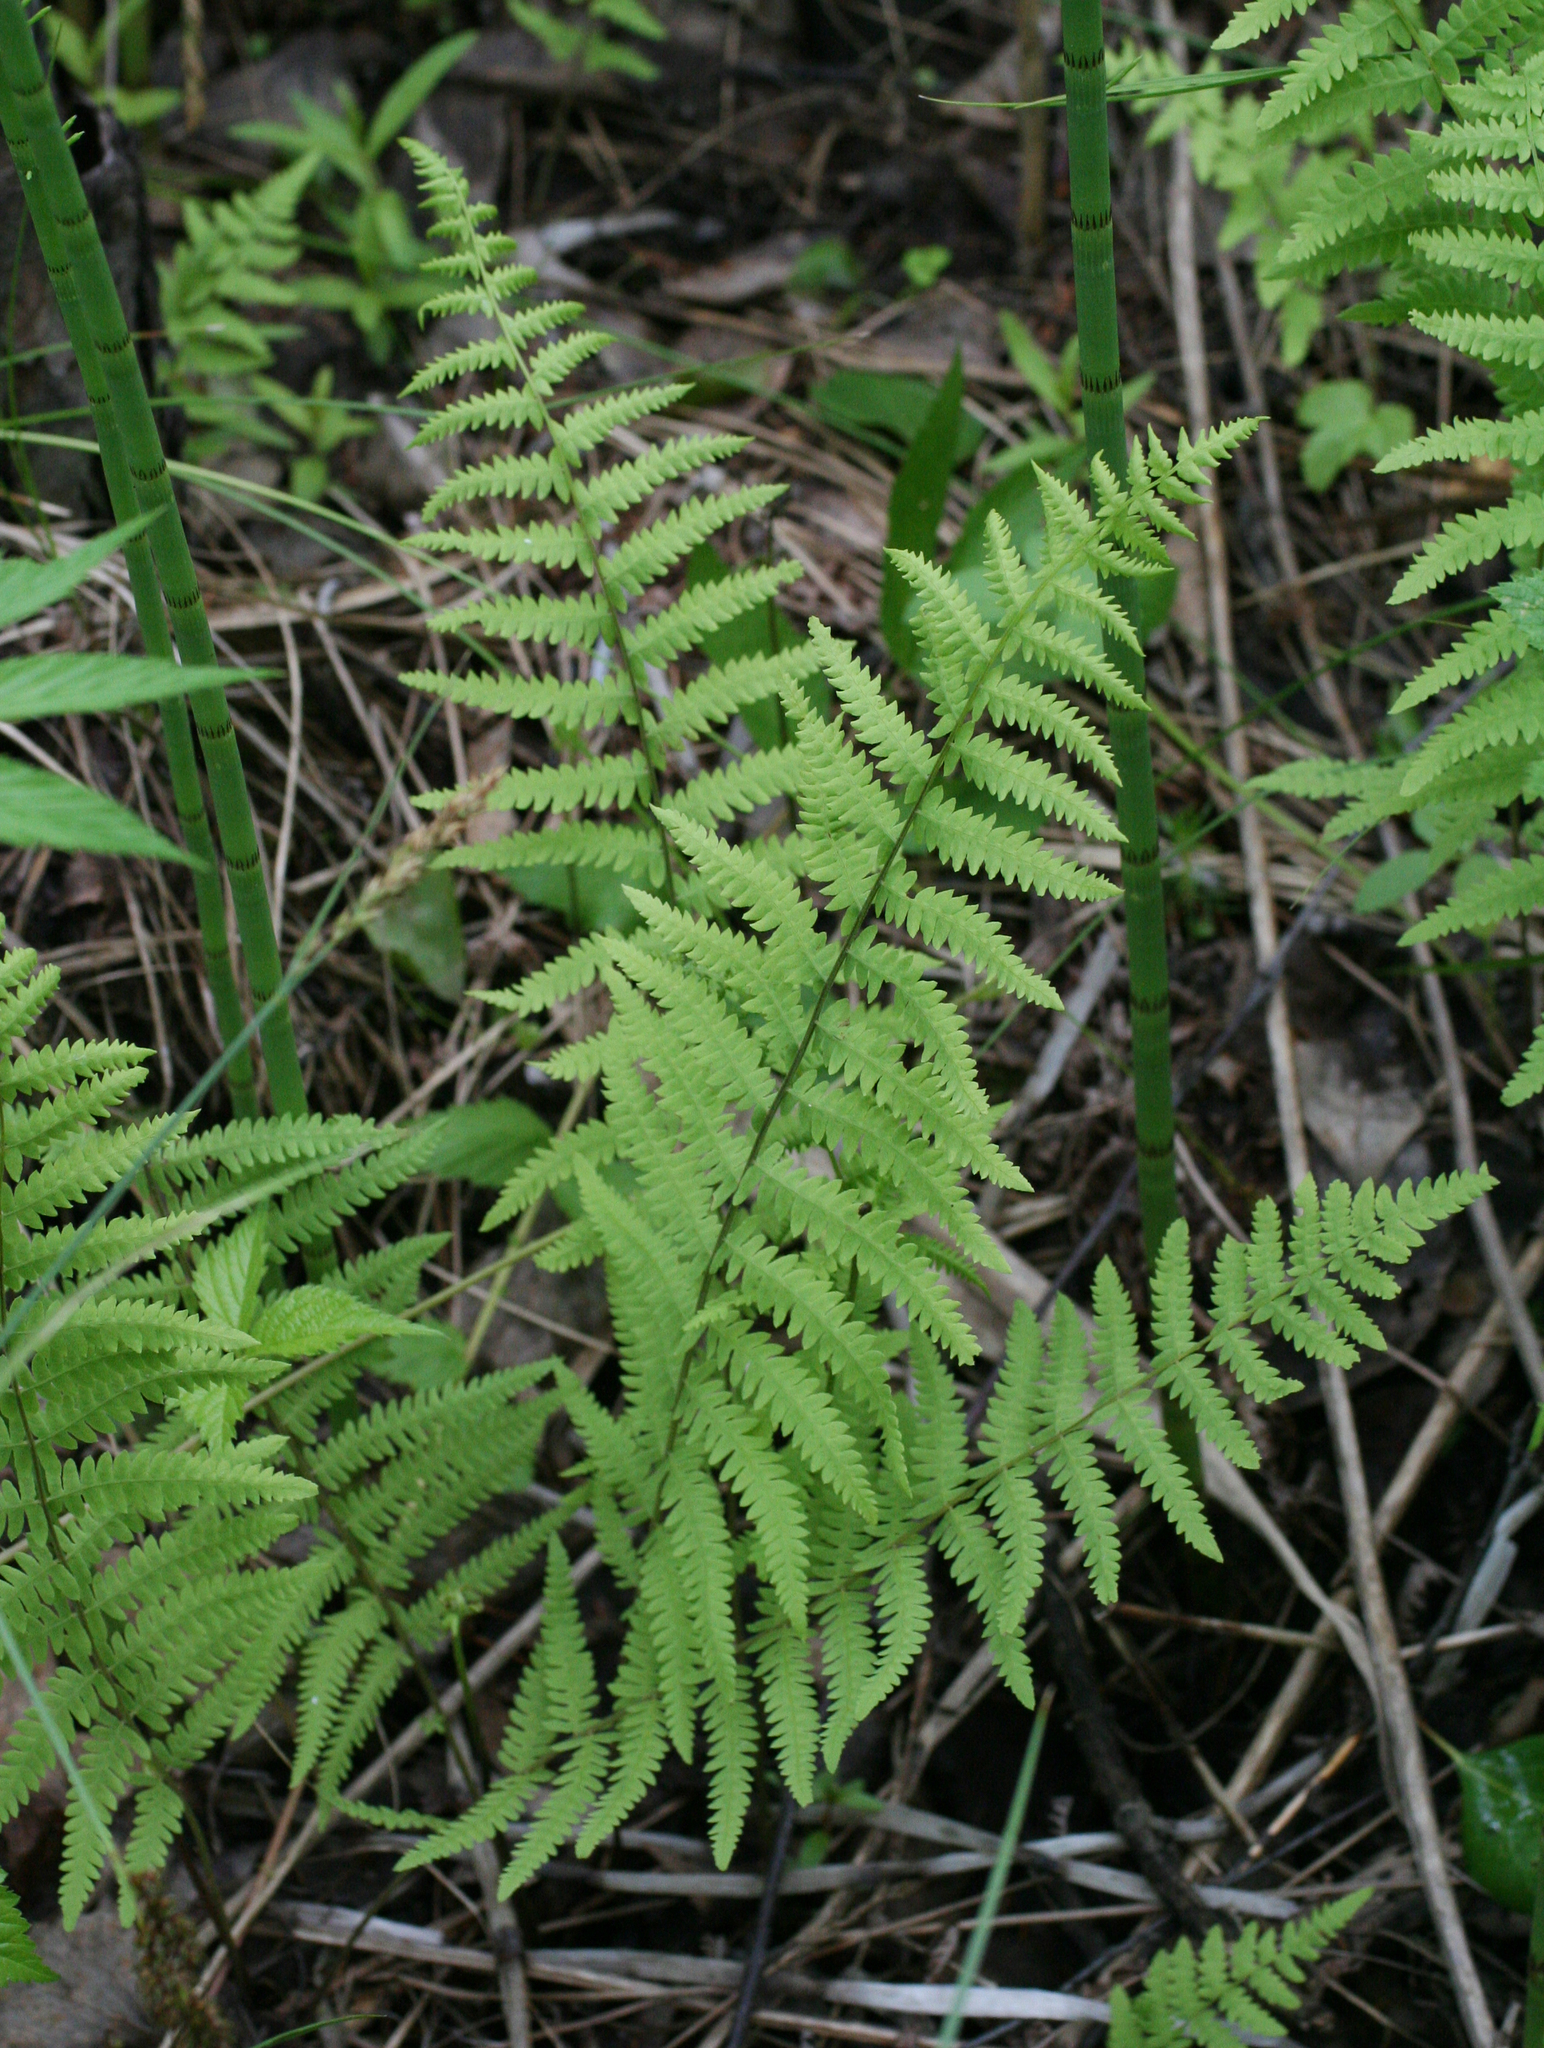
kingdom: Plantae
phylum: Tracheophyta
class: Polypodiopsida
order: Polypodiales
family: Thelypteridaceae
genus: Thelypteris
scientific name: Thelypteris palustris
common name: Marsh fern
